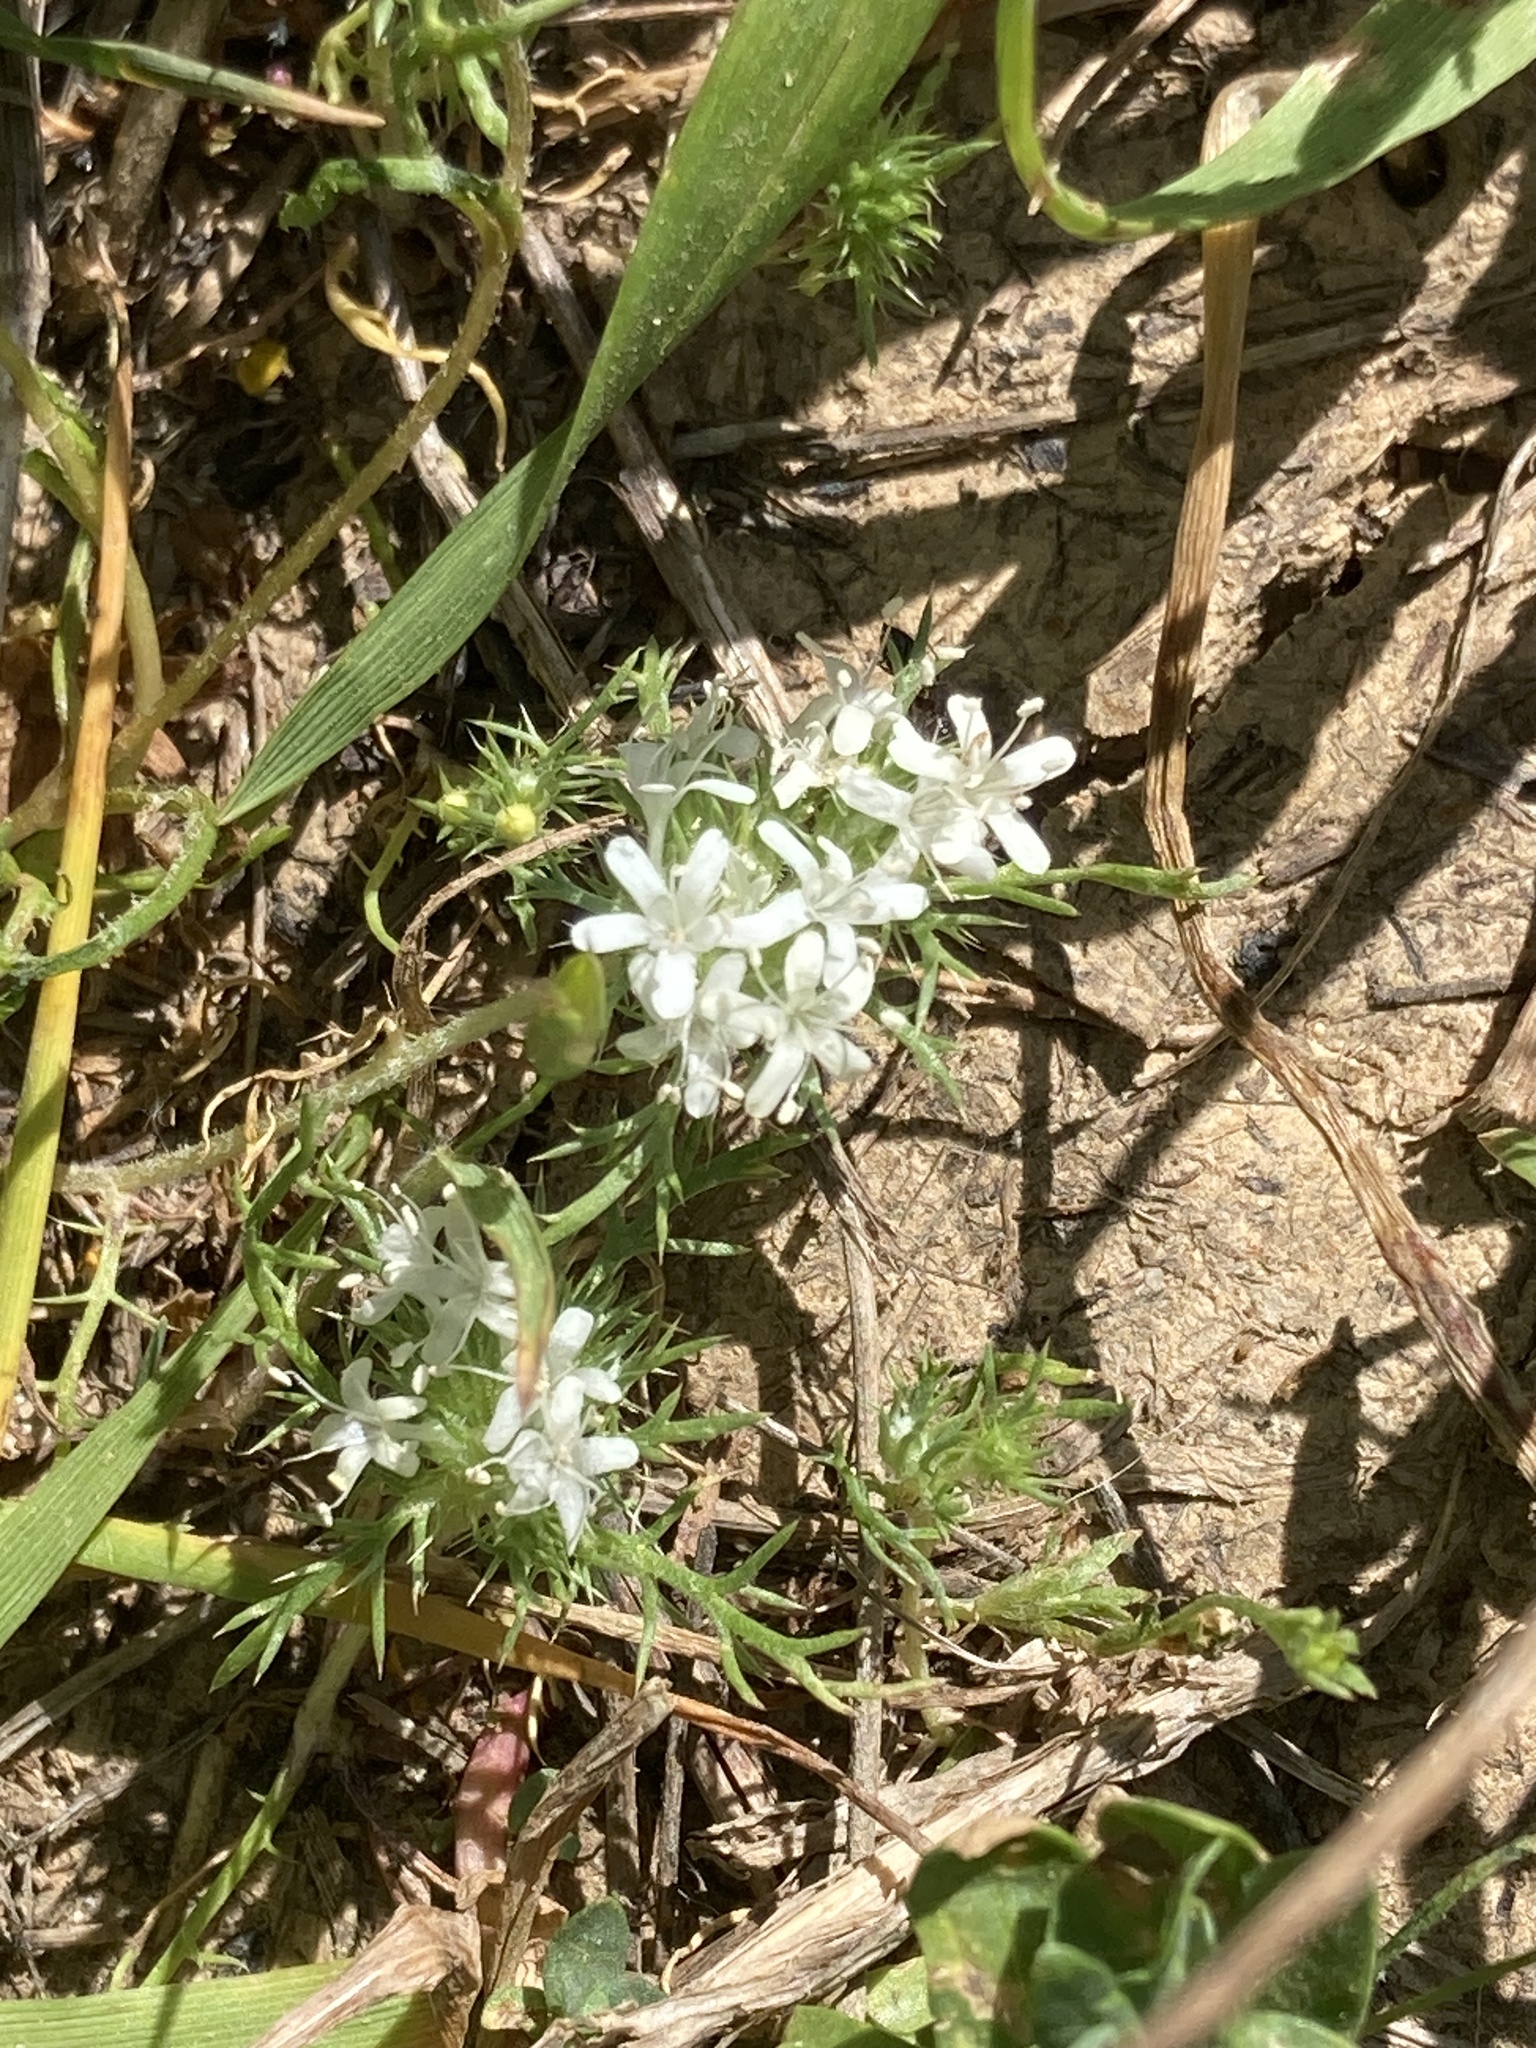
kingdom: Plantae
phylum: Tracheophyta
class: Magnoliopsida
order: Ericales
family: Polemoniaceae
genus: Navarretia
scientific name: Navarretia leucocephala
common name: White-flowered navarretia
